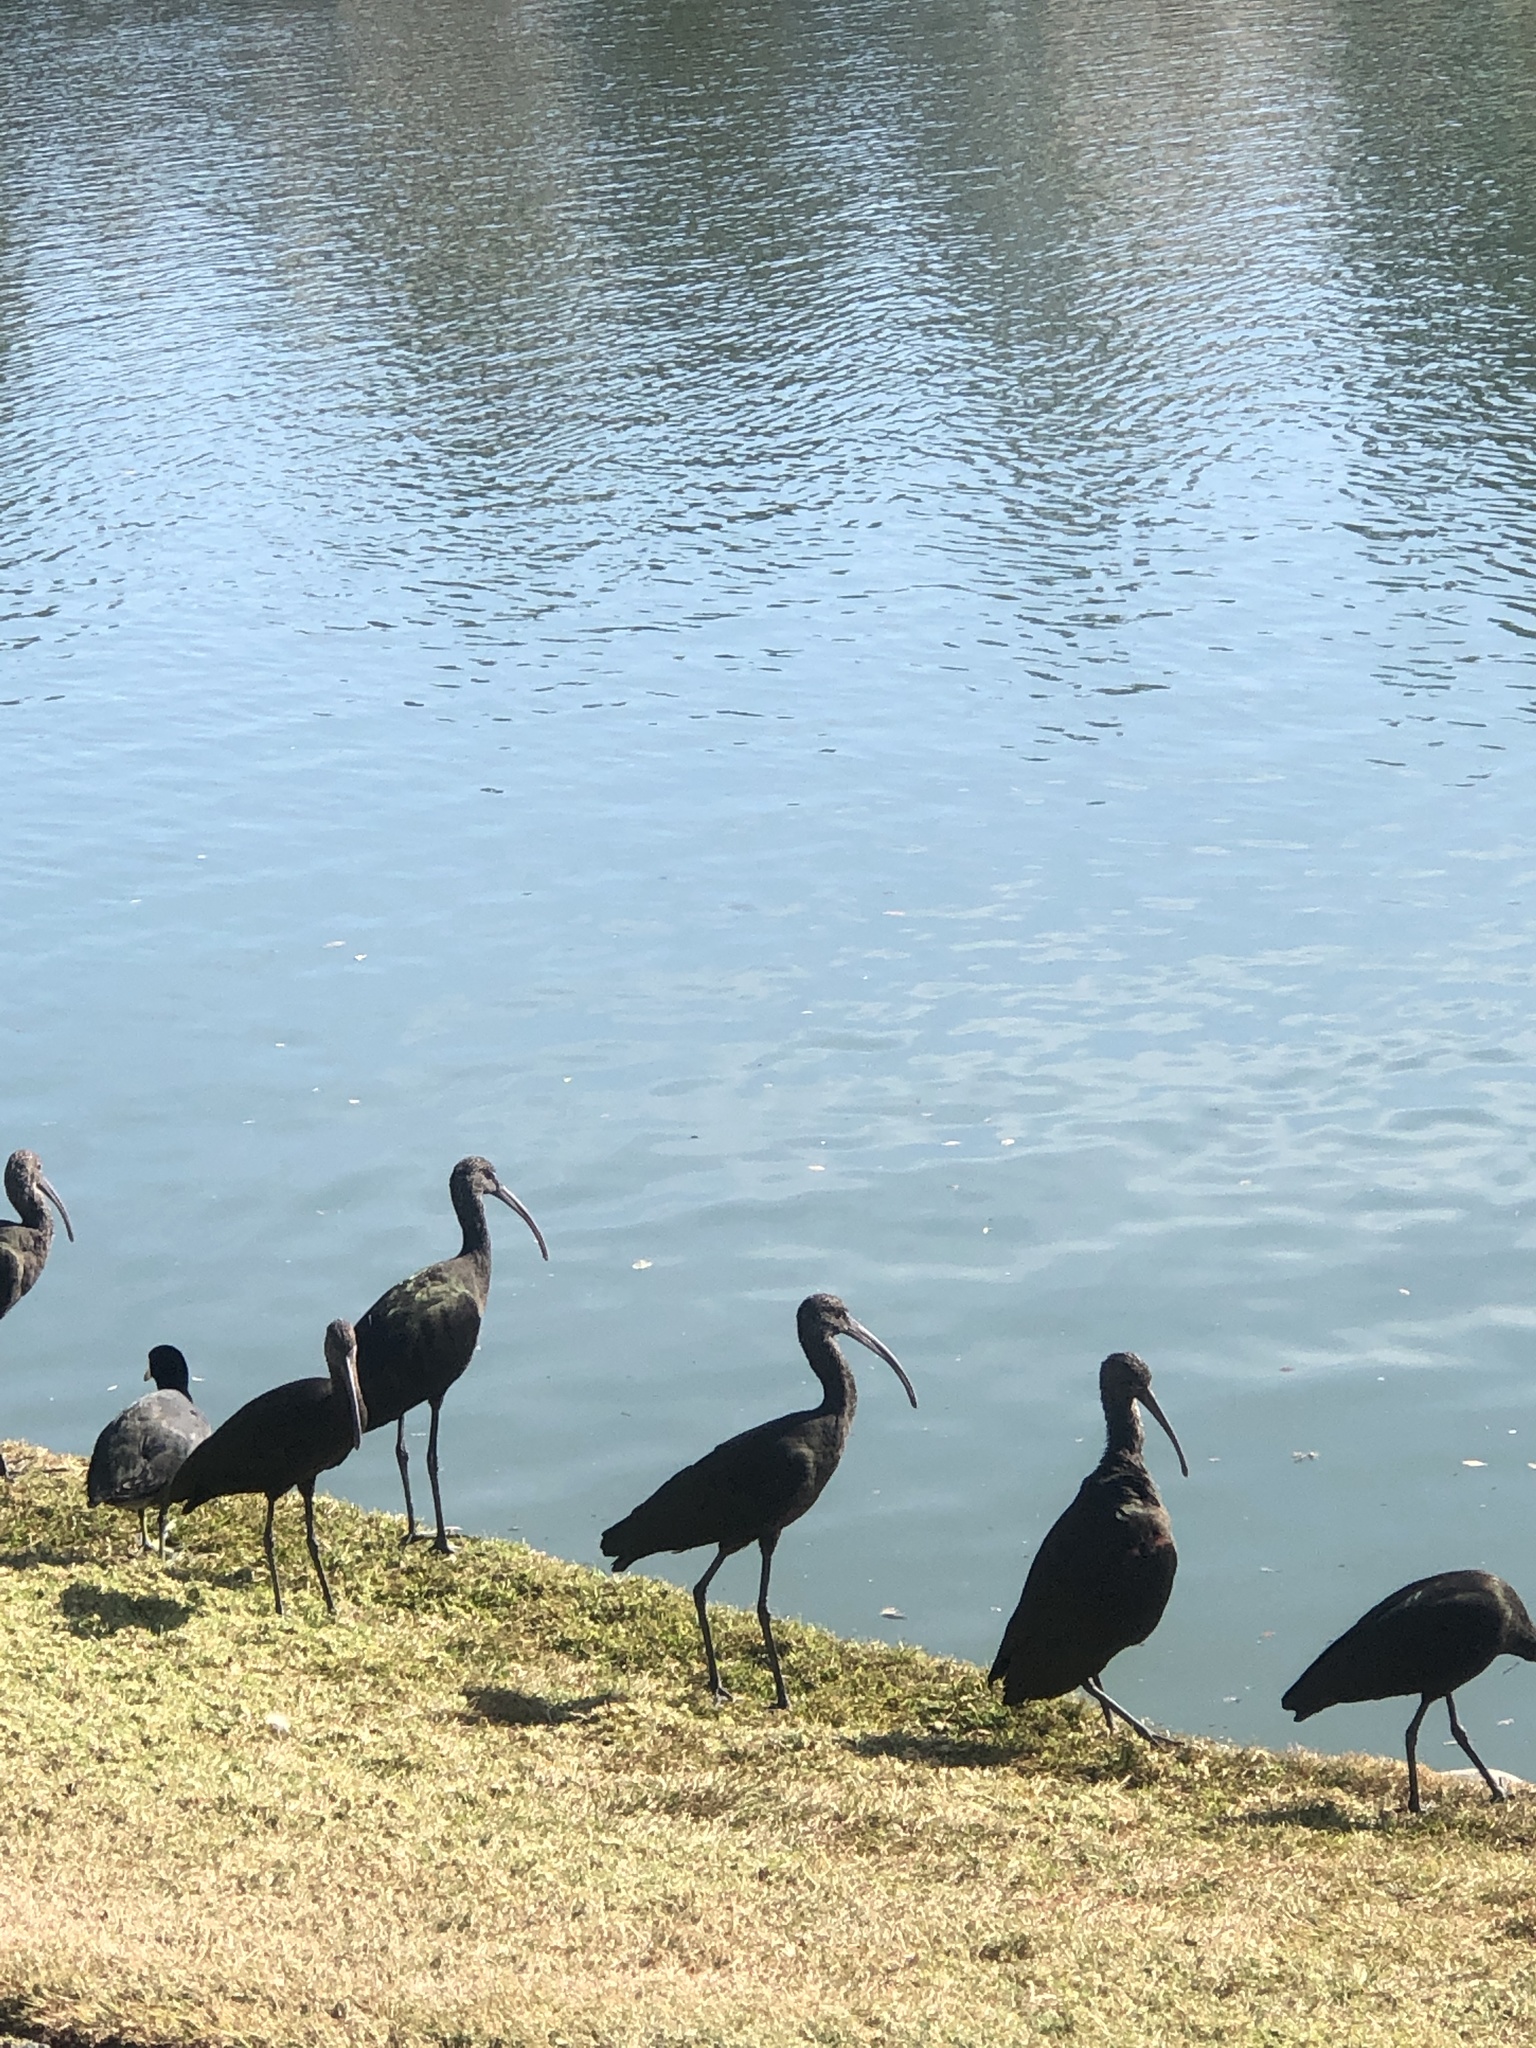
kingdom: Animalia
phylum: Chordata
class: Aves
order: Pelecaniformes
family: Threskiornithidae
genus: Plegadis
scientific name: Plegadis chihi
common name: White-faced ibis
